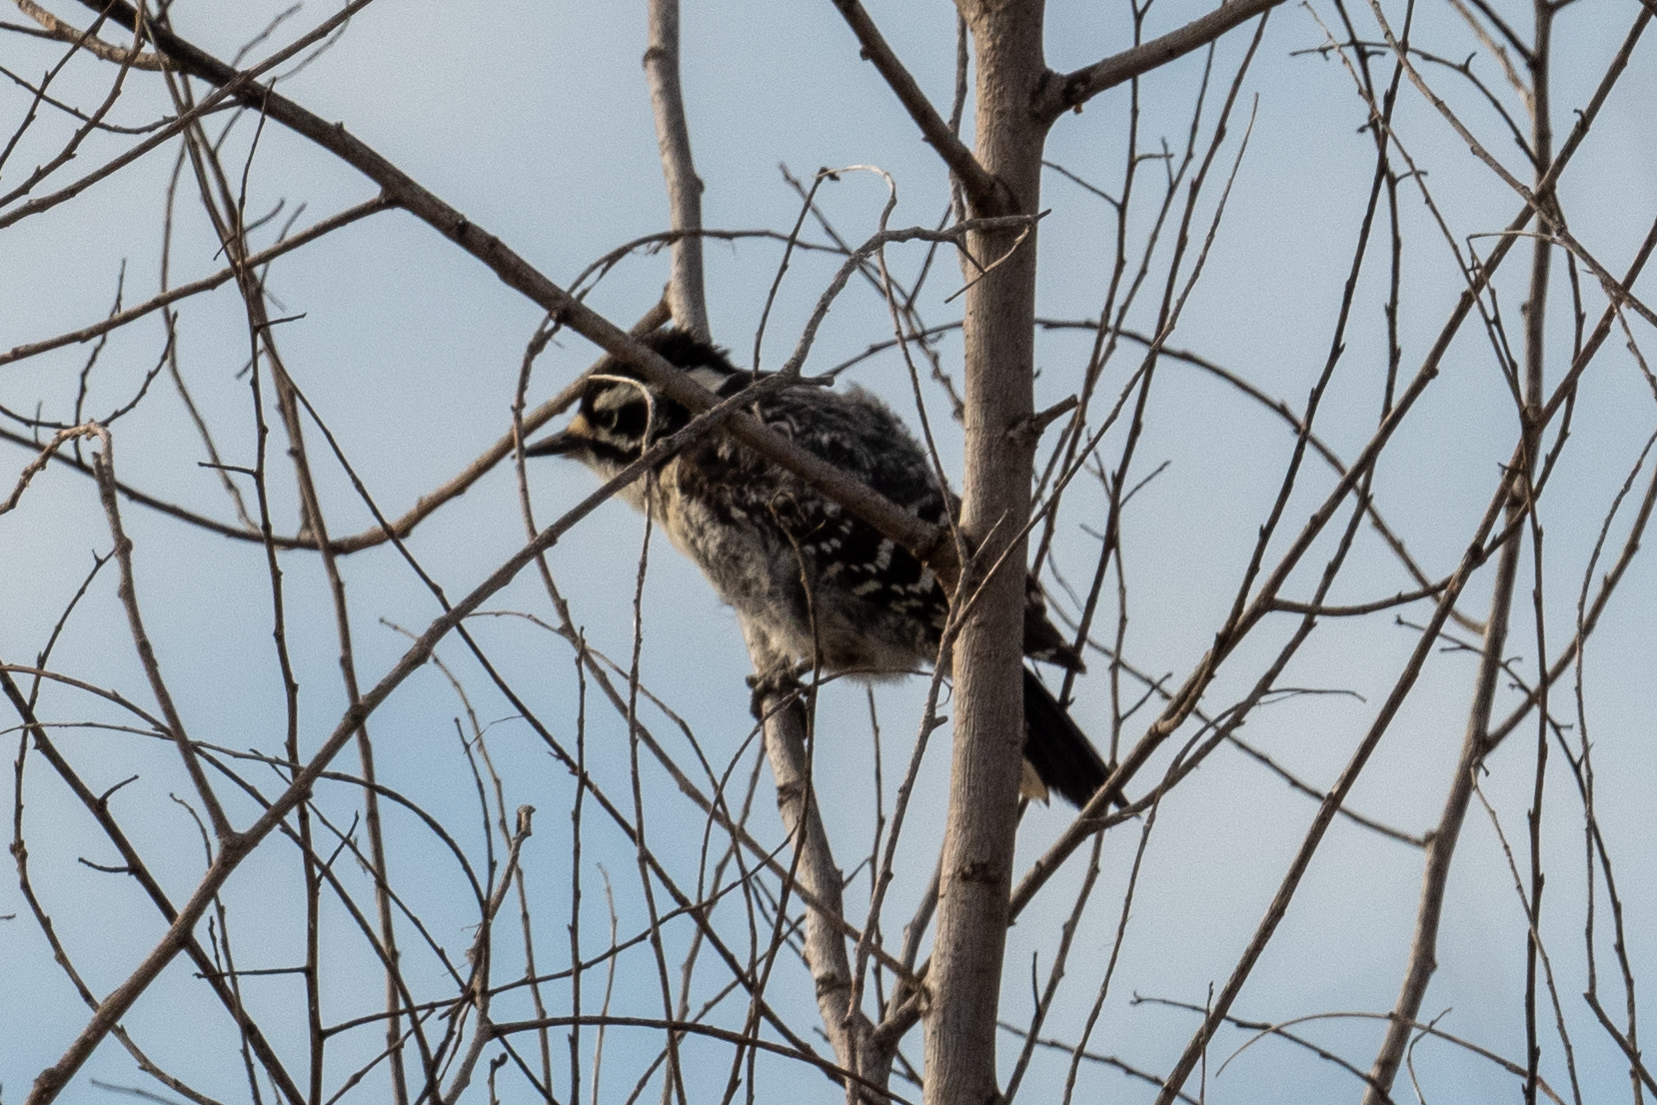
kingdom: Animalia
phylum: Chordata
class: Aves
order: Piciformes
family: Picidae
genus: Dryobates
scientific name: Dryobates nuttallii
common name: Nuttall's woodpecker
